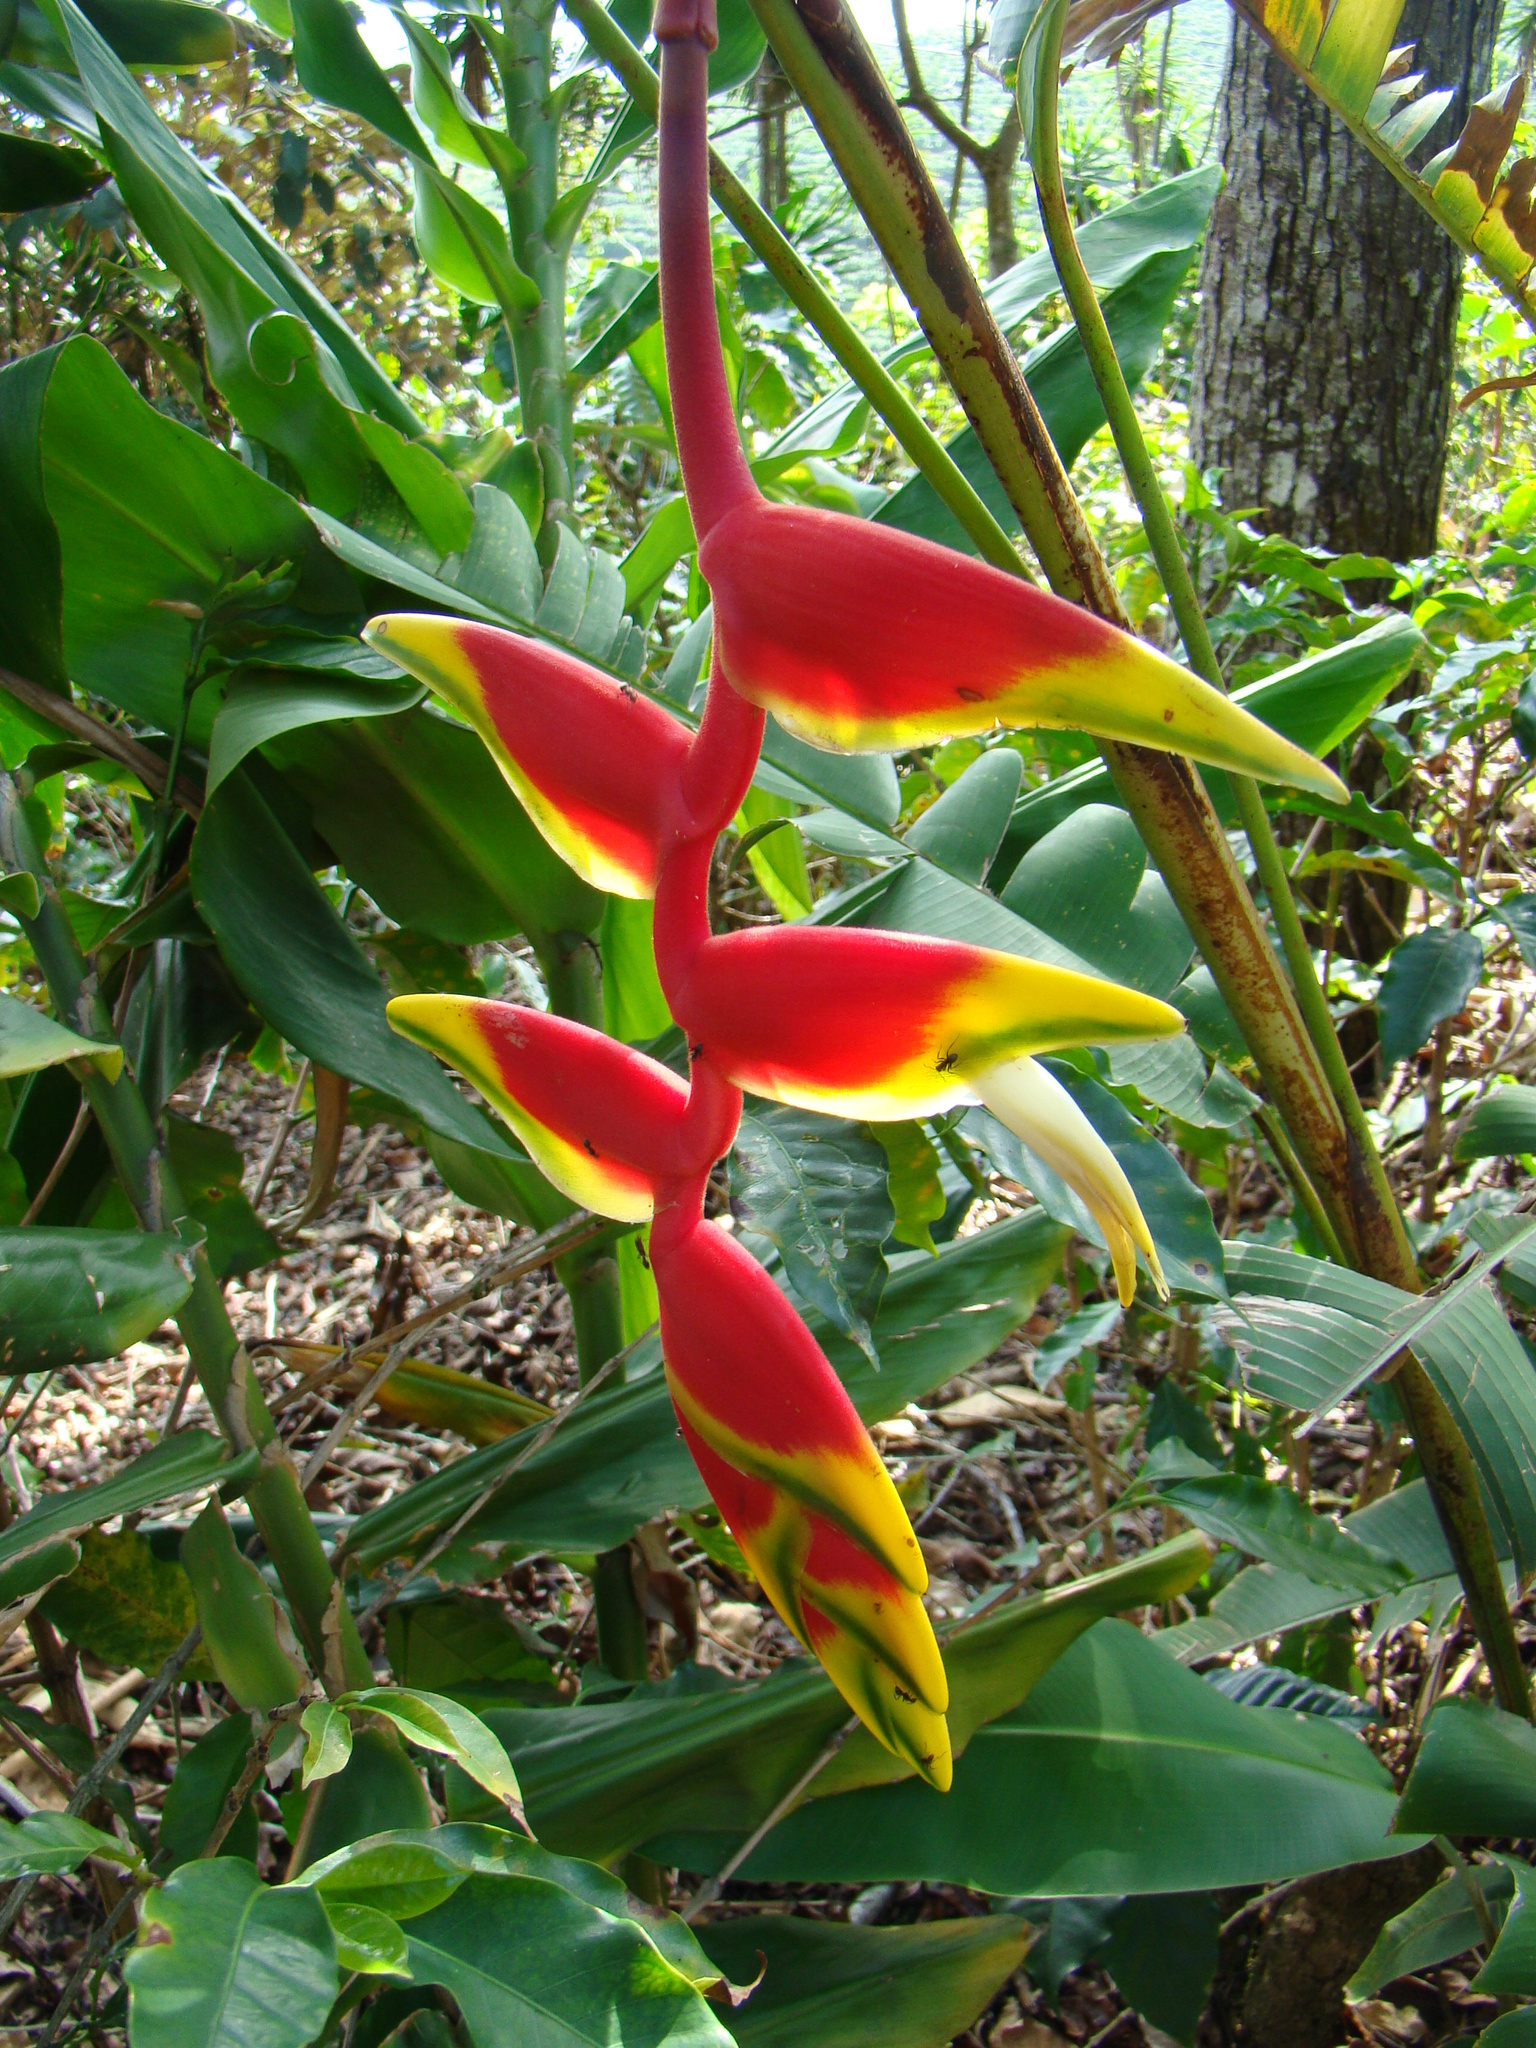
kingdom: Plantae
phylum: Tracheophyta
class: Liliopsida
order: Zingiberales
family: Heliconiaceae
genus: Heliconia
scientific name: Heliconia rostrata
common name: False bird of paradise
